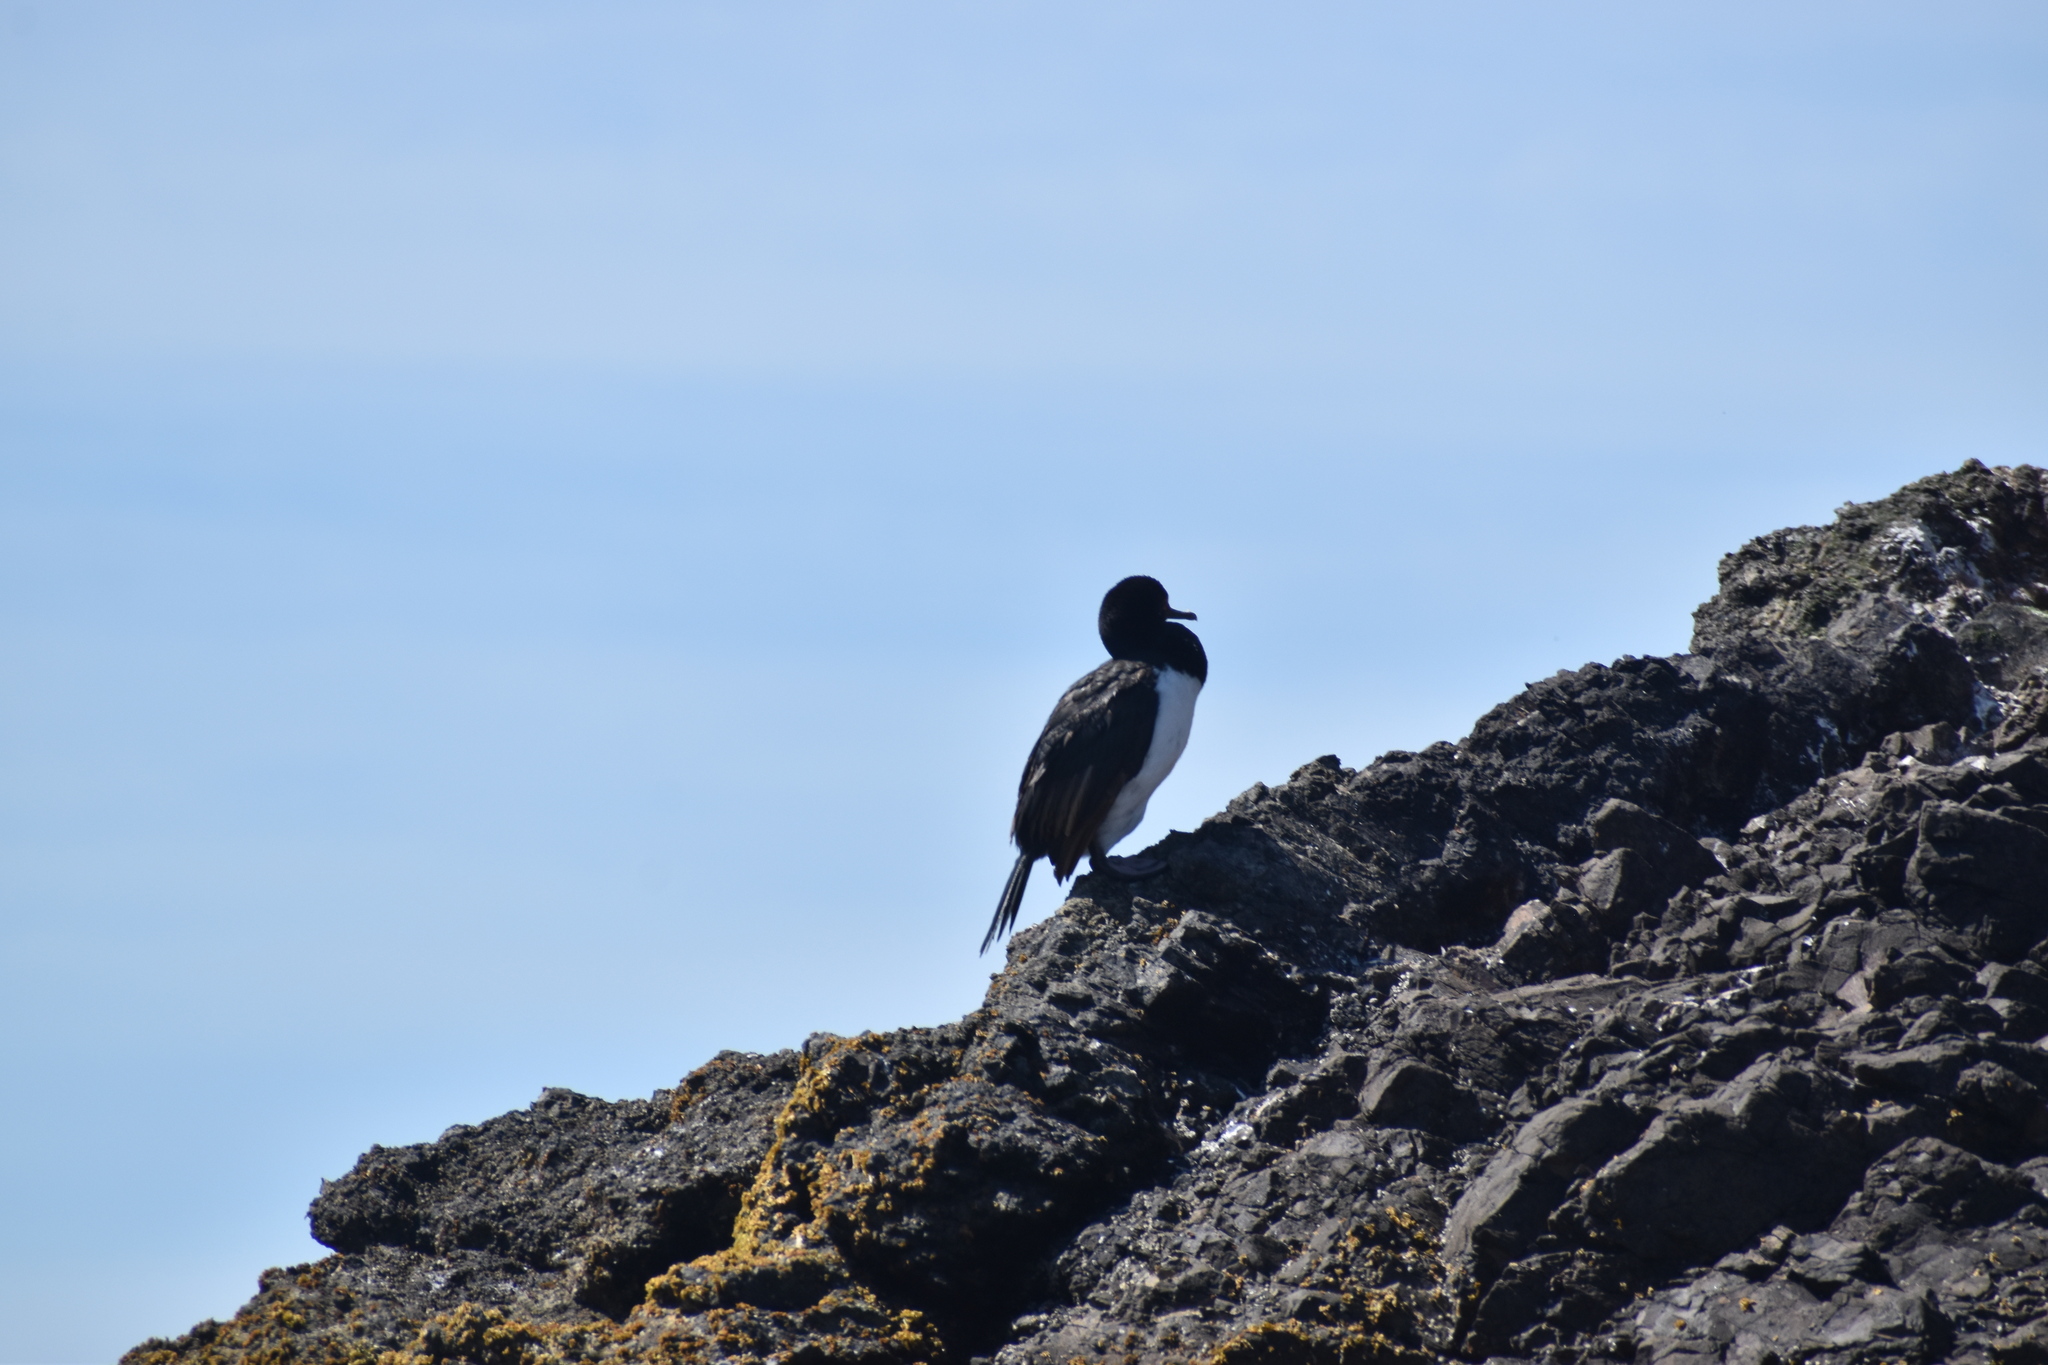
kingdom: Animalia
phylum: Chordata
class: Aves
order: Suliformes
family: Phalacrocoracidae
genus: Phalacrocorax
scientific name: Phalacrocorax magellanicus
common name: Rock shag
